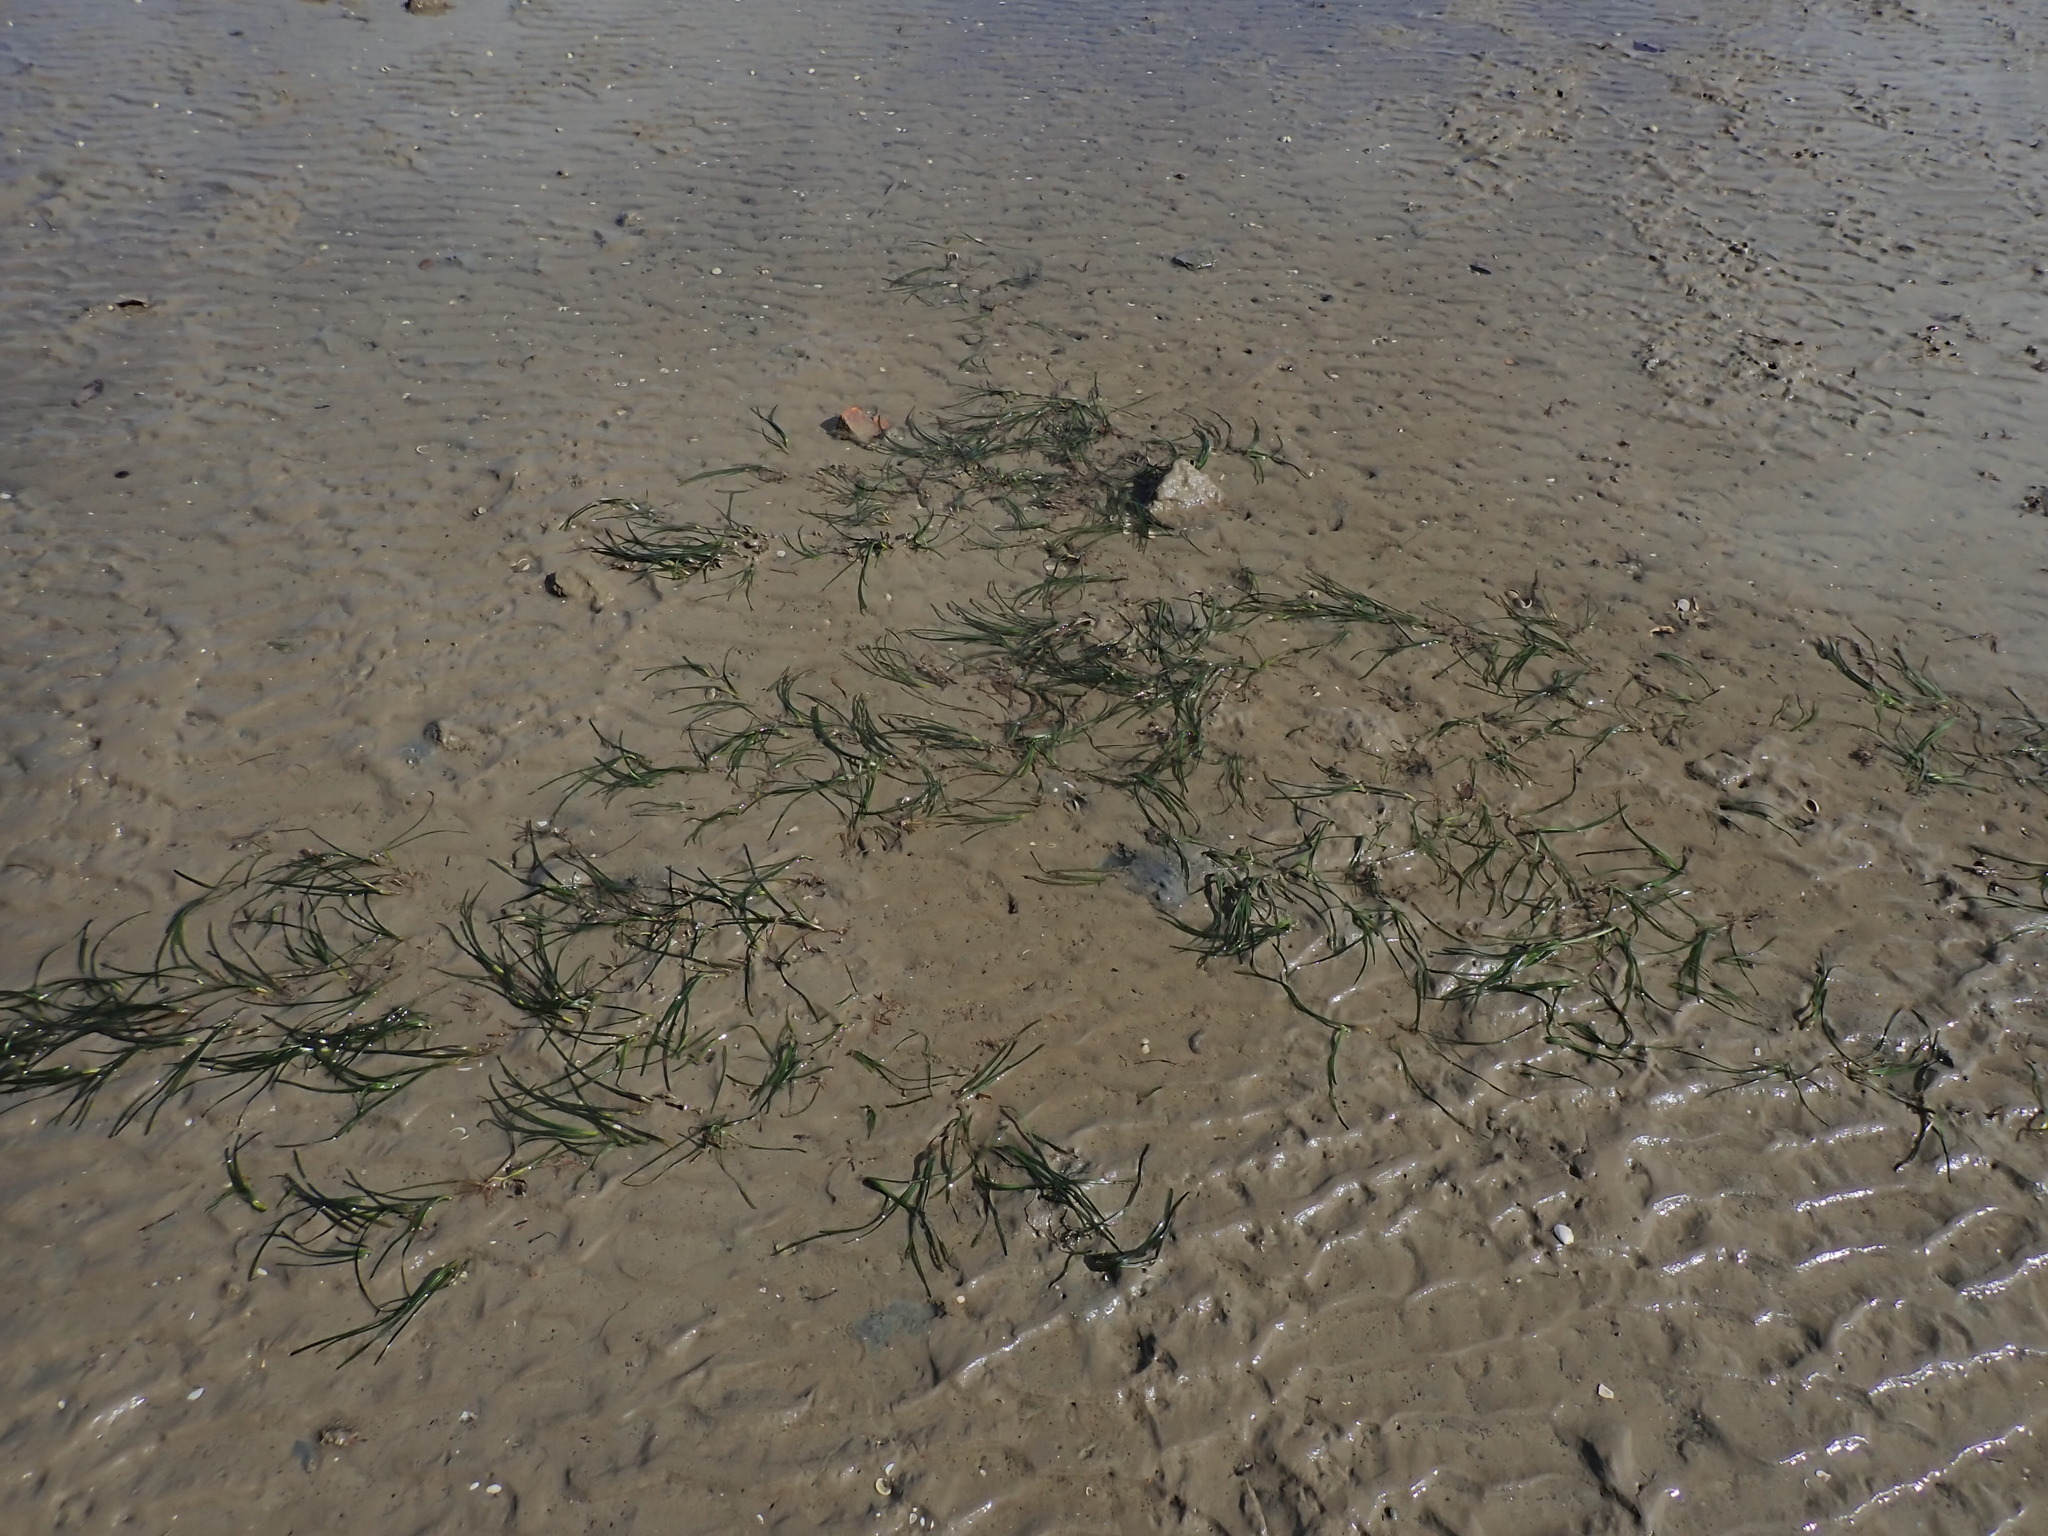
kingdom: Plantae
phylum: Tracheophyta
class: Liliopsida
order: Alismatales
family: Zosteraceae
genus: Zostera
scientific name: Zostera novazelandica
